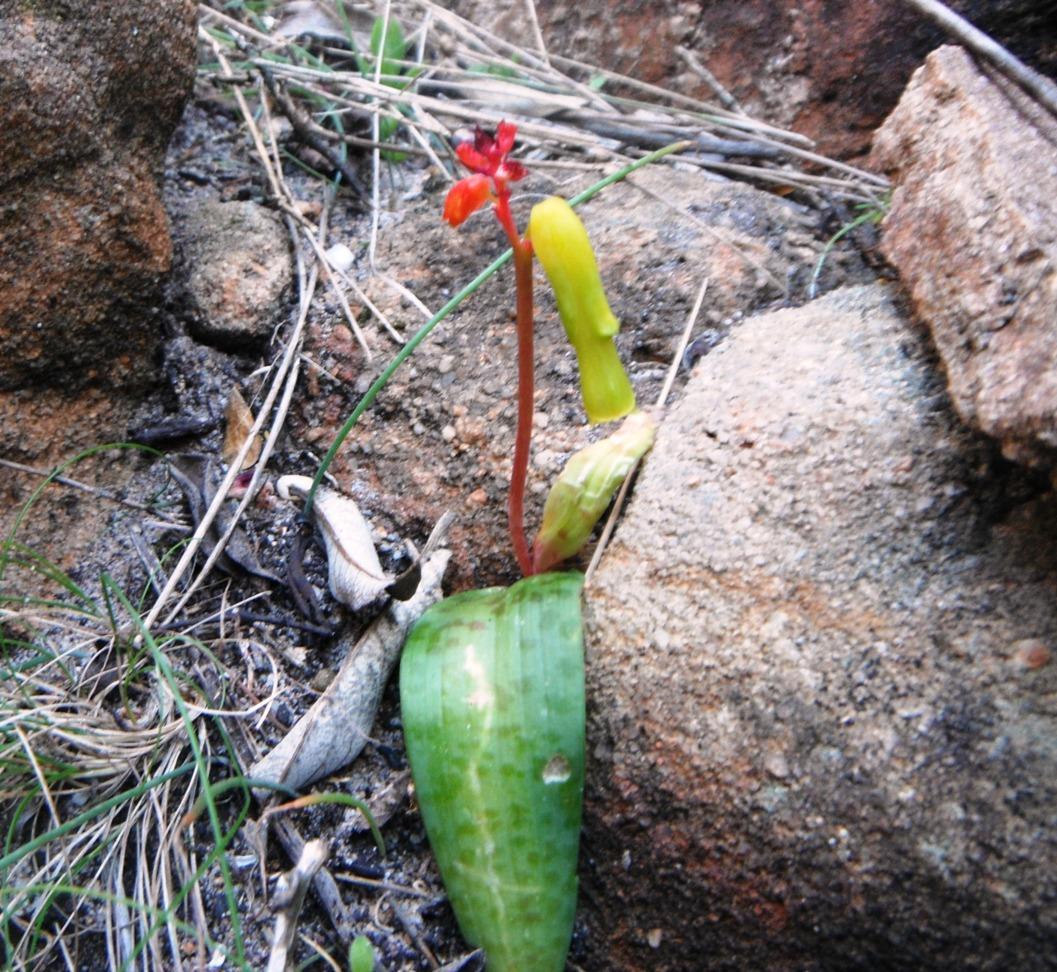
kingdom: Plantae
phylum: Tracheophyta
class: Liliopsida
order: Asparagales
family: Asparagaceae
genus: Lachenalia
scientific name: Lachenalia luteola
